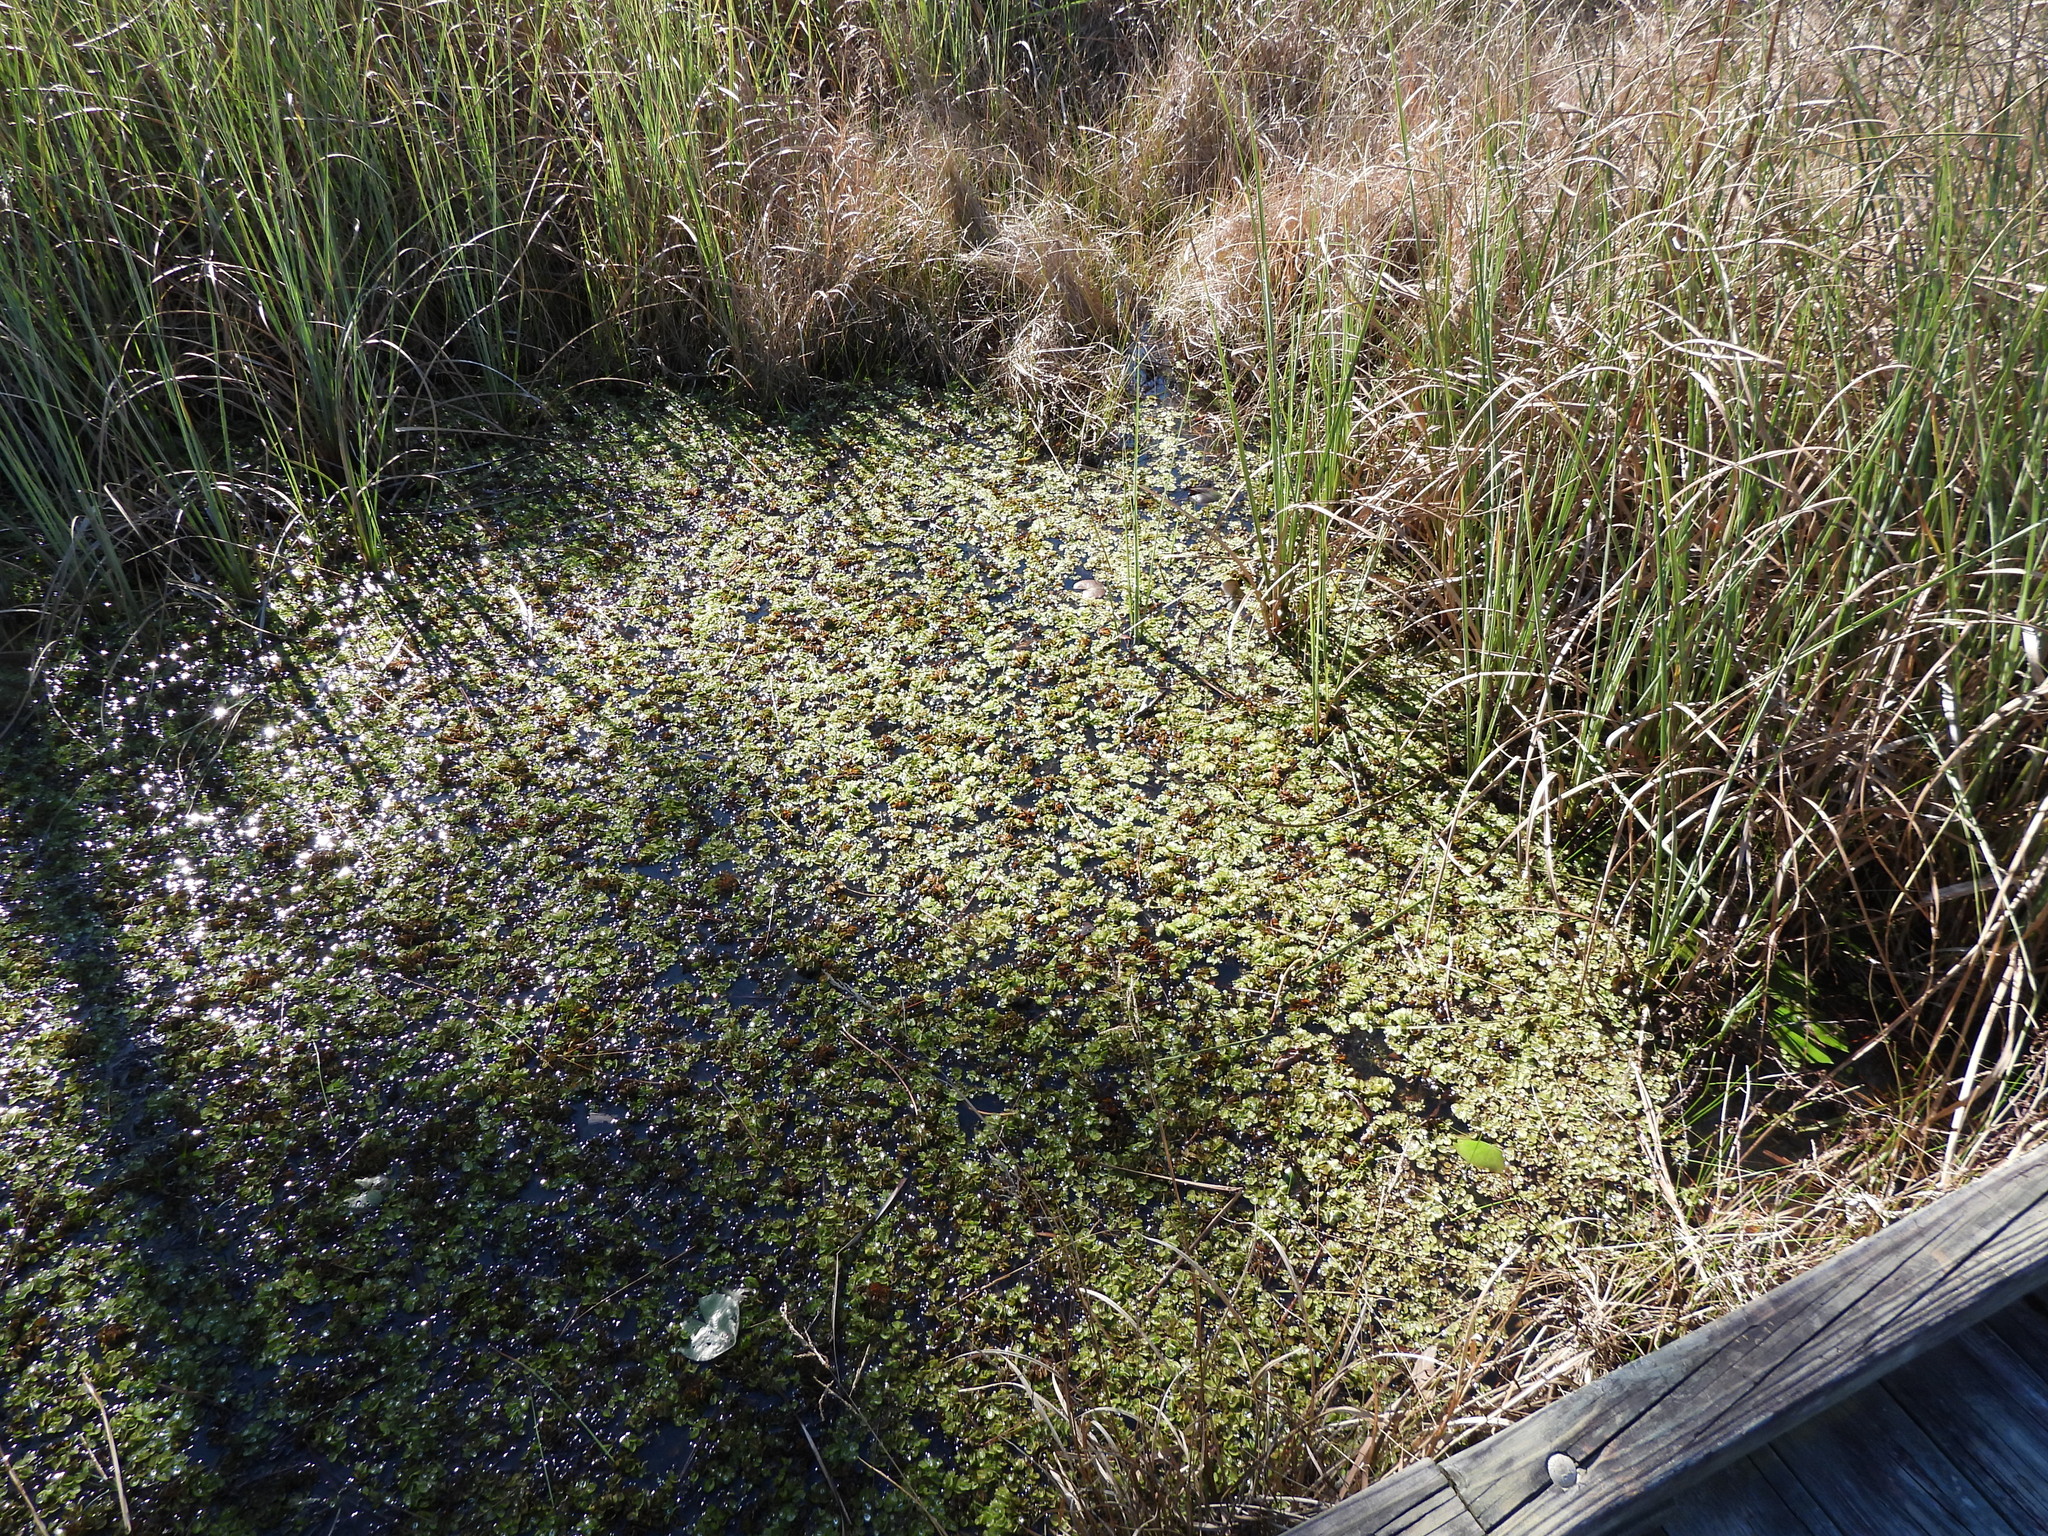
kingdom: Plantae
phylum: Tracheophyta
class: Polypodiopsida
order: Salviniales
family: Salviniaceae
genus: Salvinia
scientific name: Salvinia molesta
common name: Kariba weed
